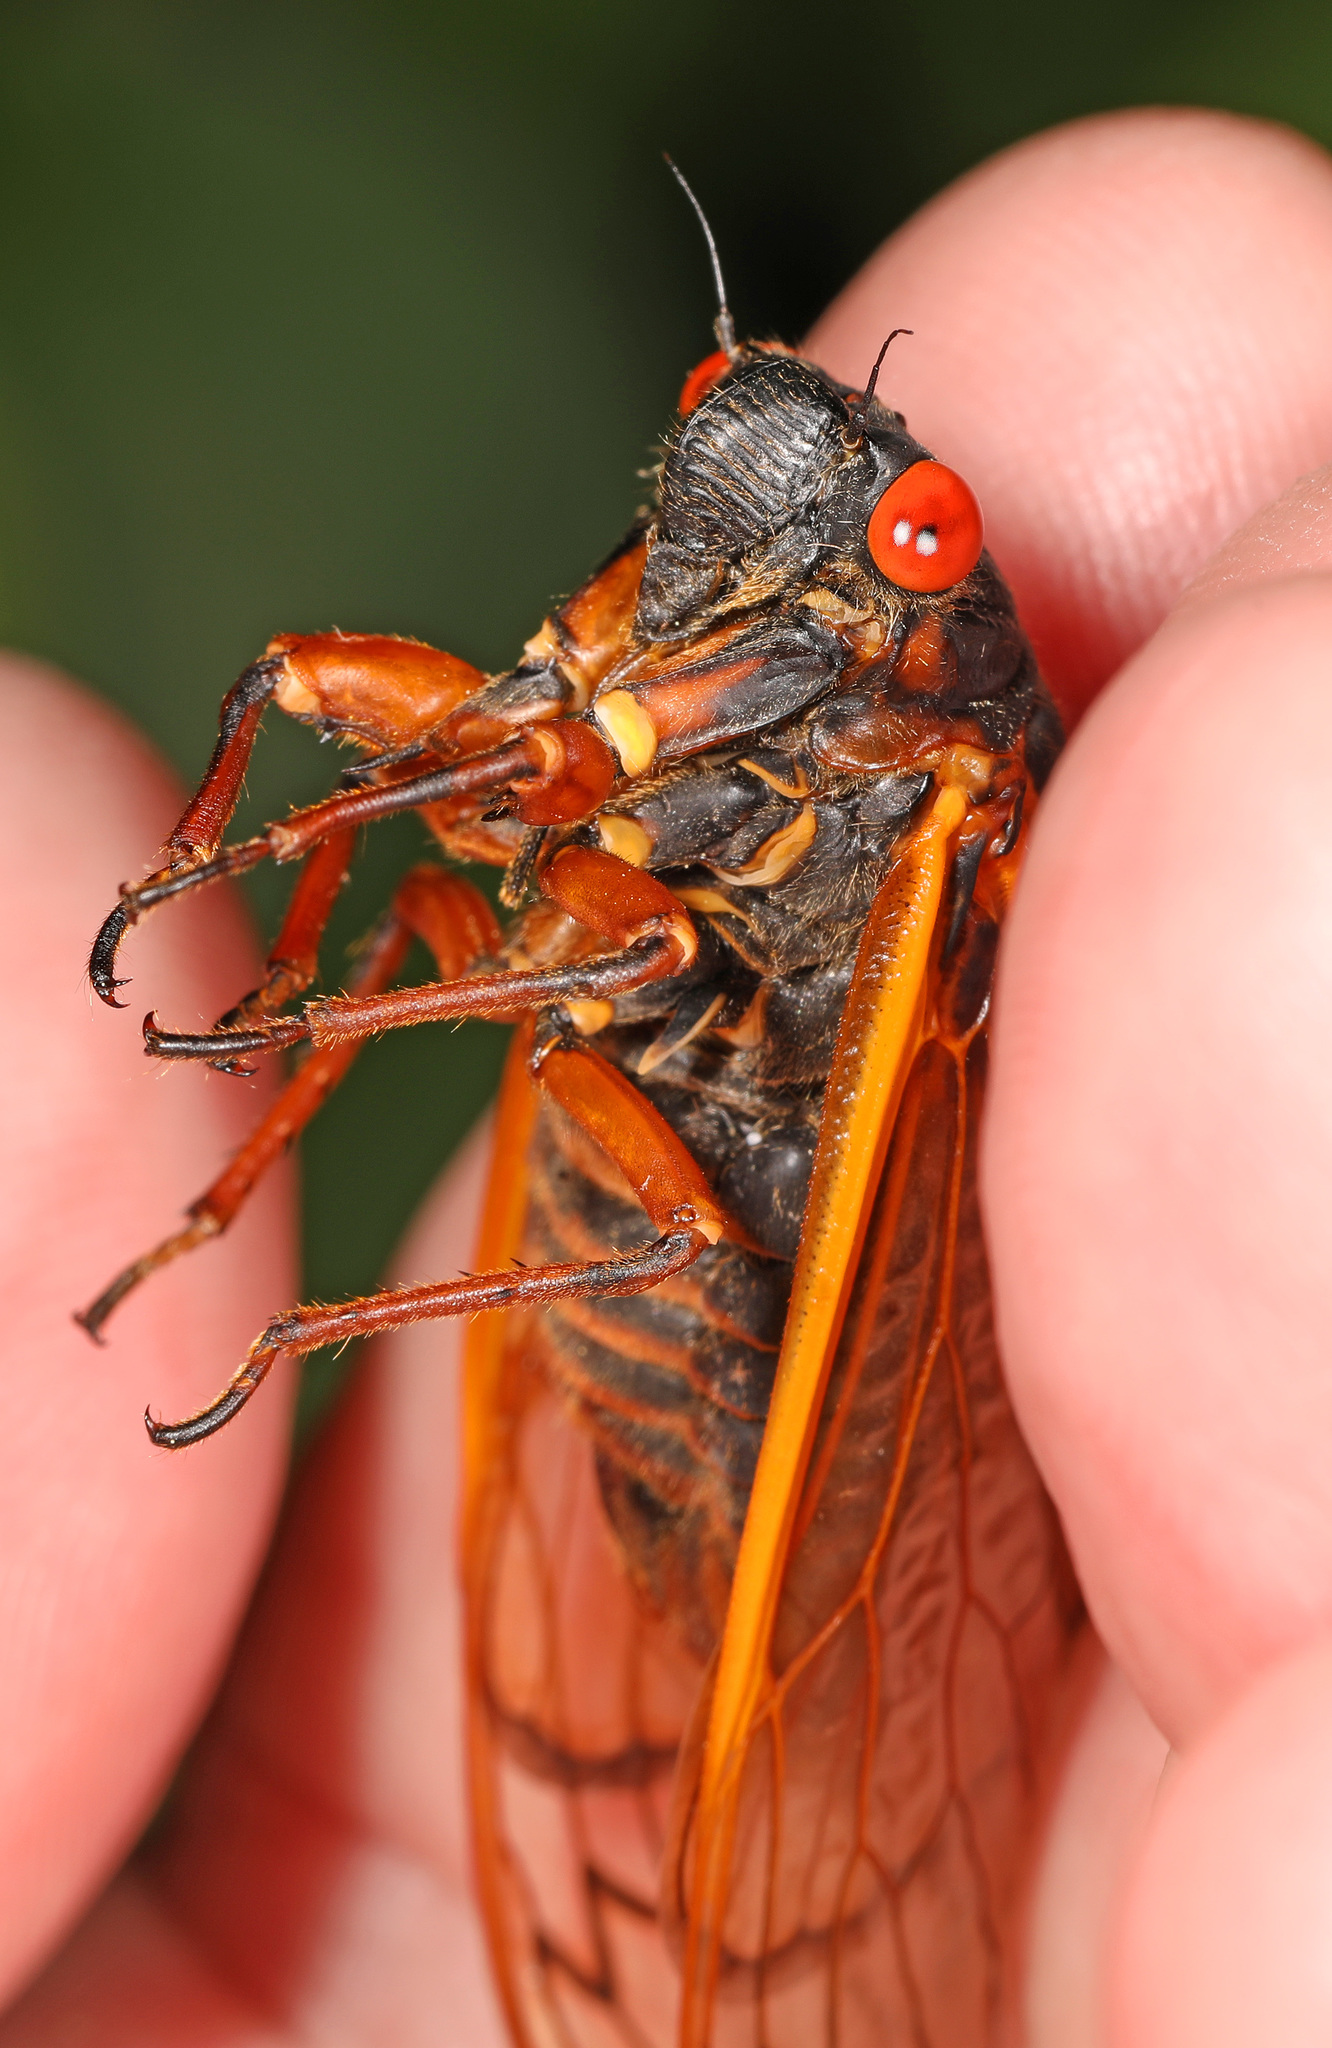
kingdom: Animalia
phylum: Arthropoda
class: Insecta
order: Hemiptera
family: Cicadidae
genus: Magicicada
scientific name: Magicicada septendecim
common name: Periodical cicada
